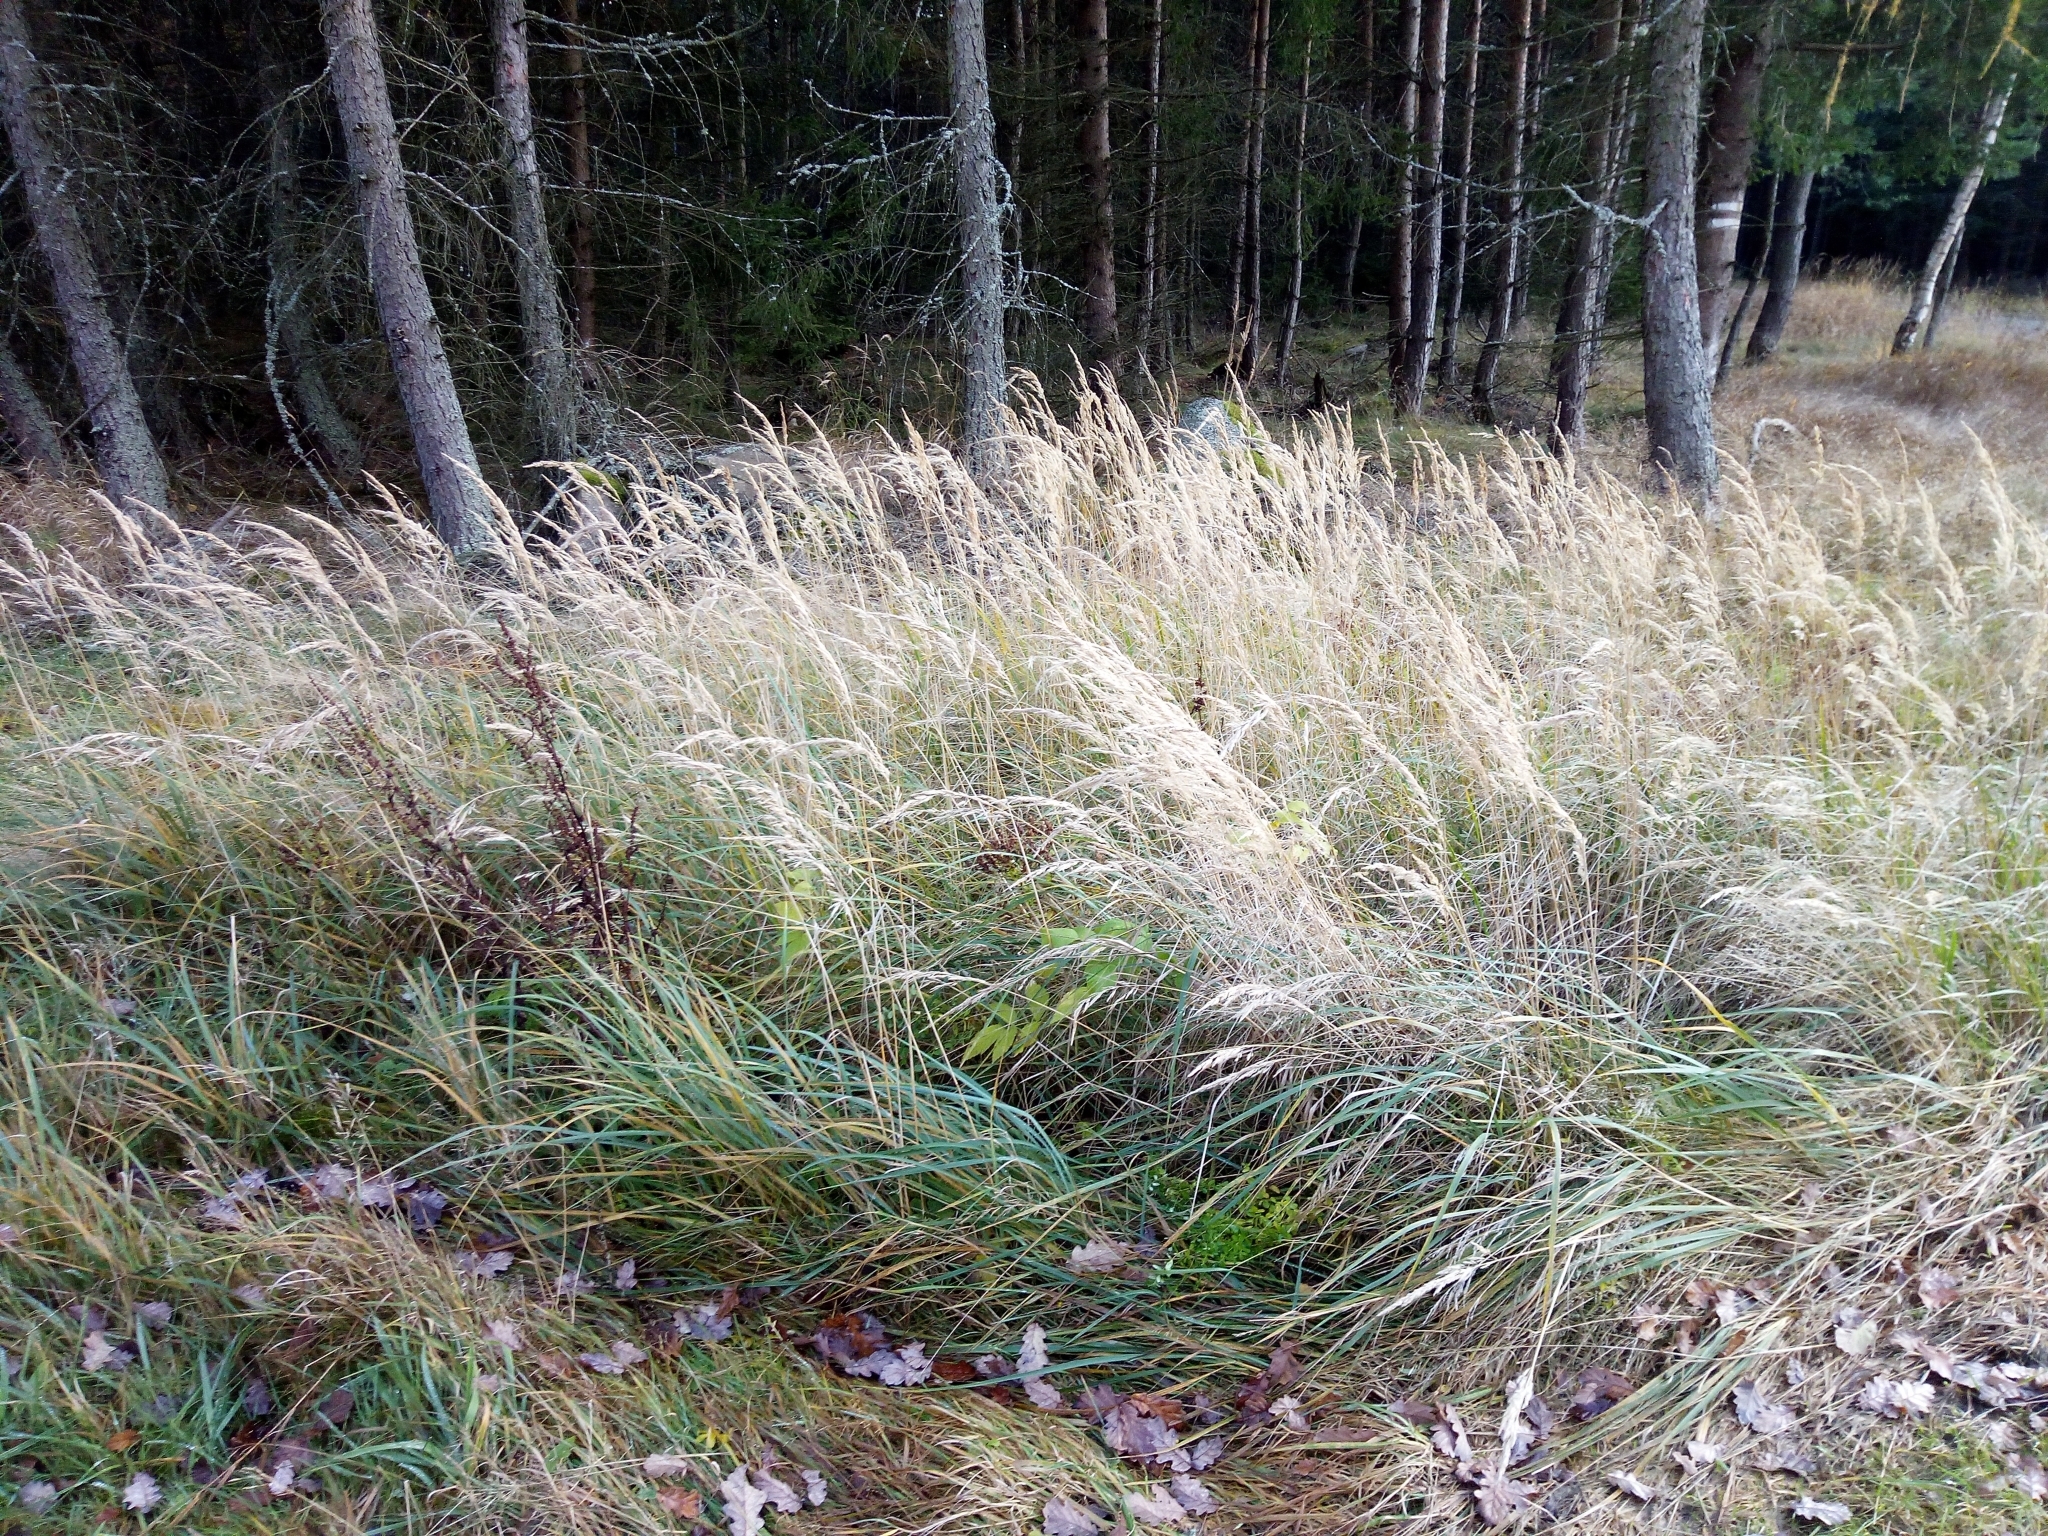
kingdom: Plantae
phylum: Tracheophyta
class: Liliopsida
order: Poales
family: Poaceae
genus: Calamagrostis
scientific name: Calamagrostis epigejos
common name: Wood small-reed
